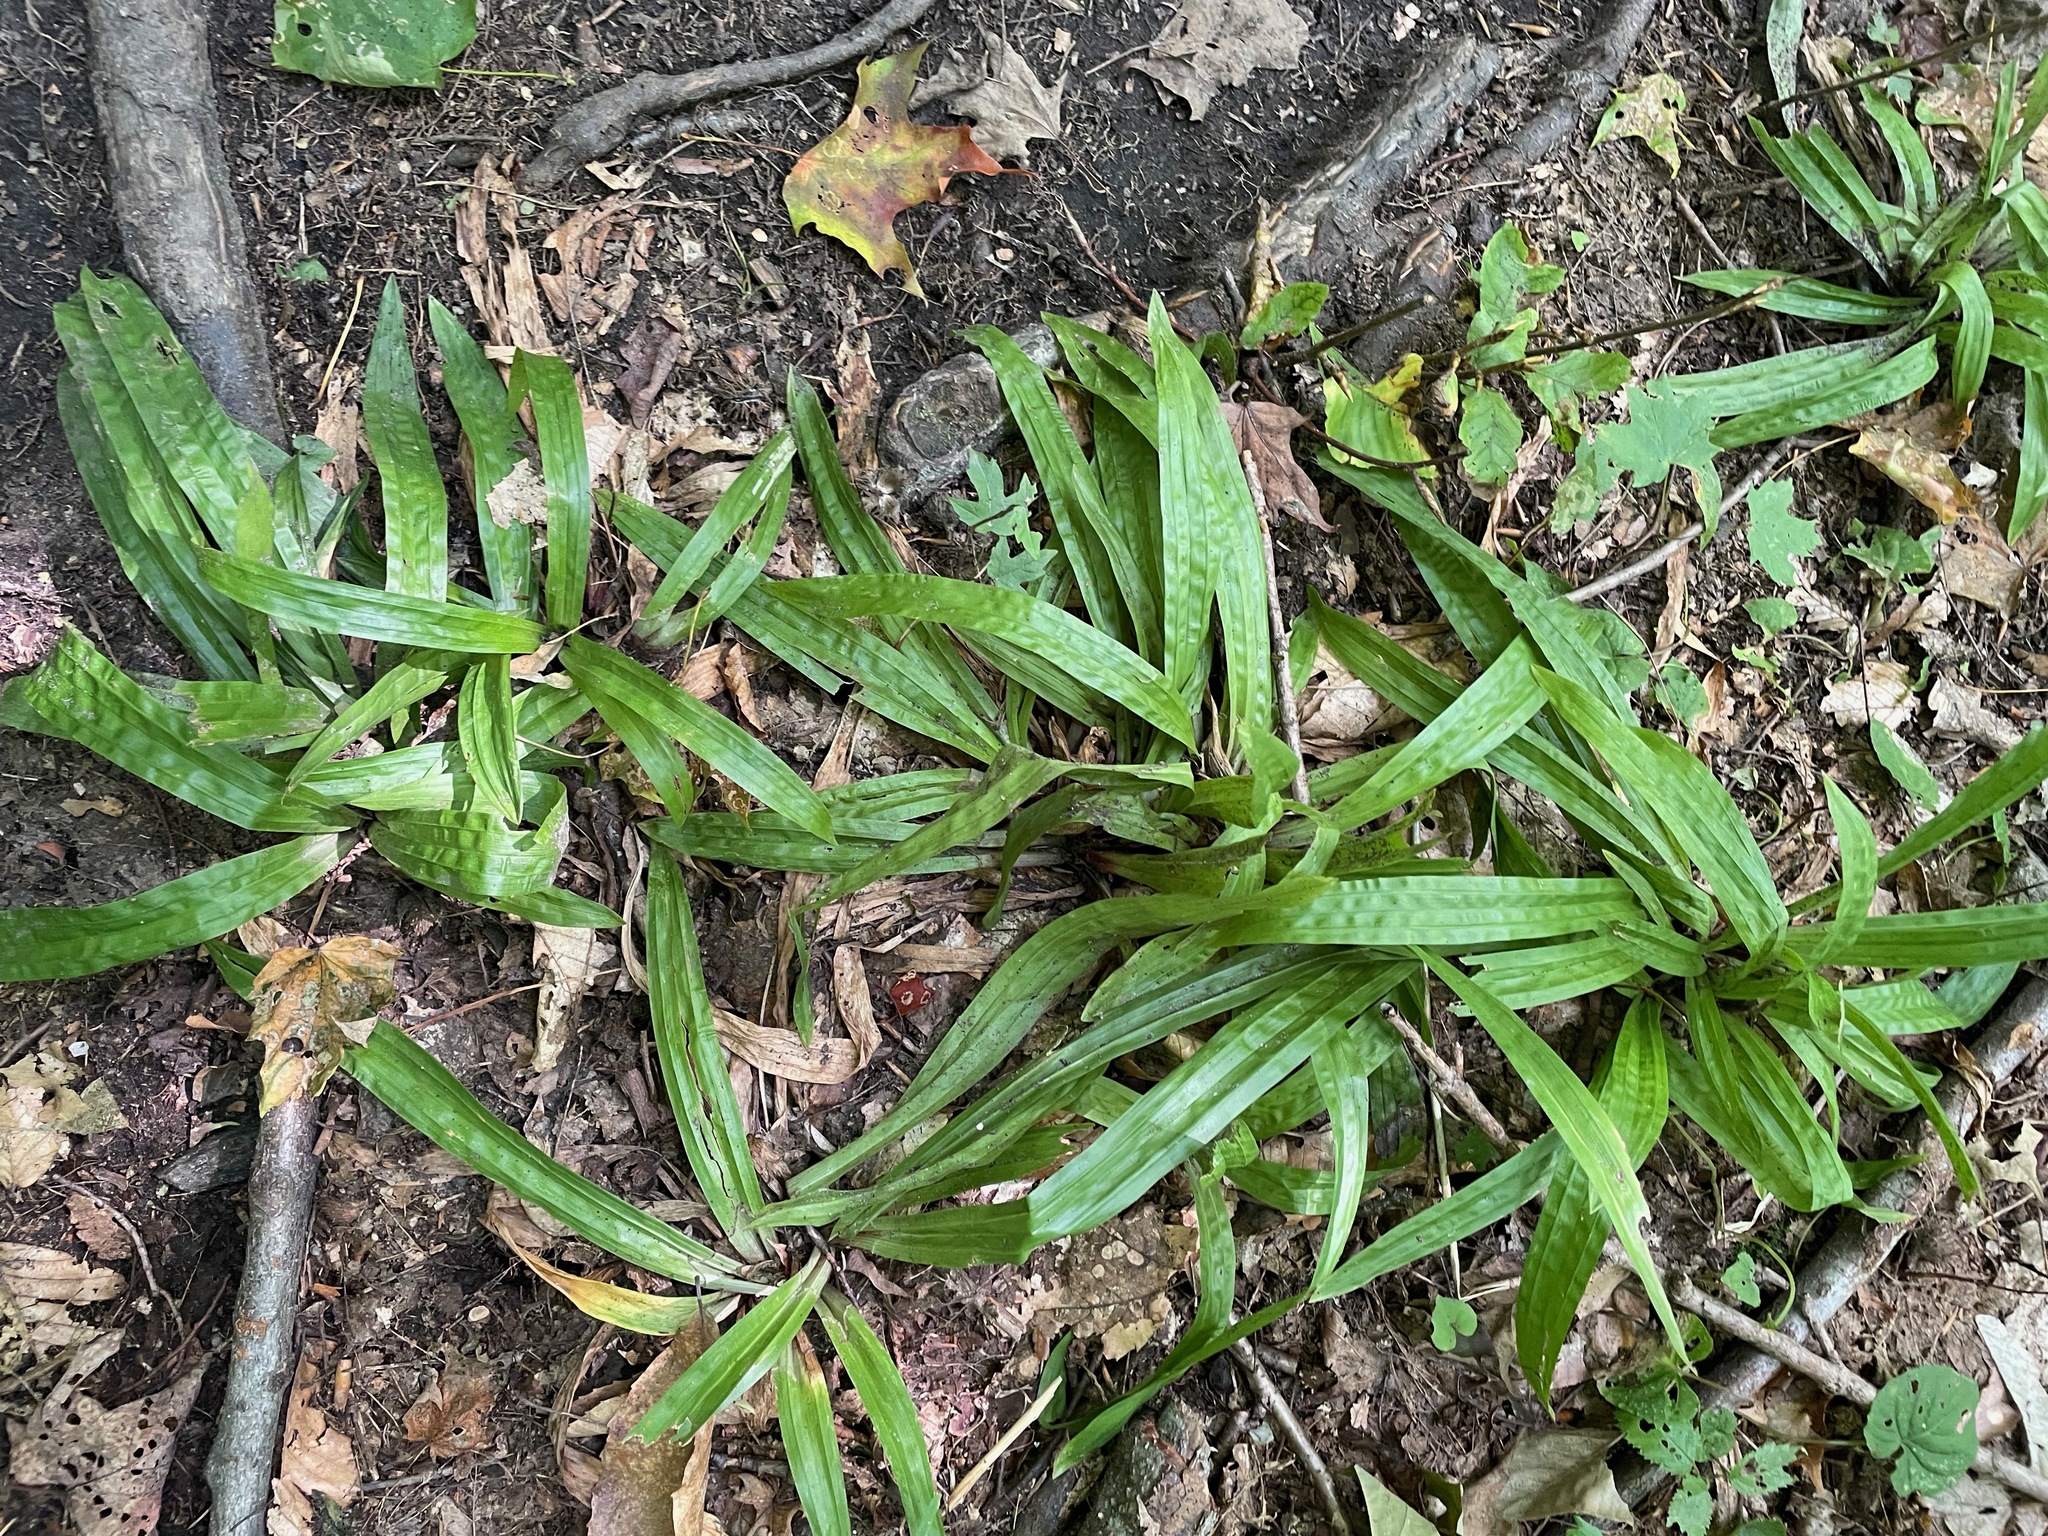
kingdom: Plantae
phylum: Tracheophyta
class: Liliopsida
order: Poales
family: Cyperaceae
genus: Carex
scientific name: Carex plantaginea
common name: Plantain-leaved sedge
